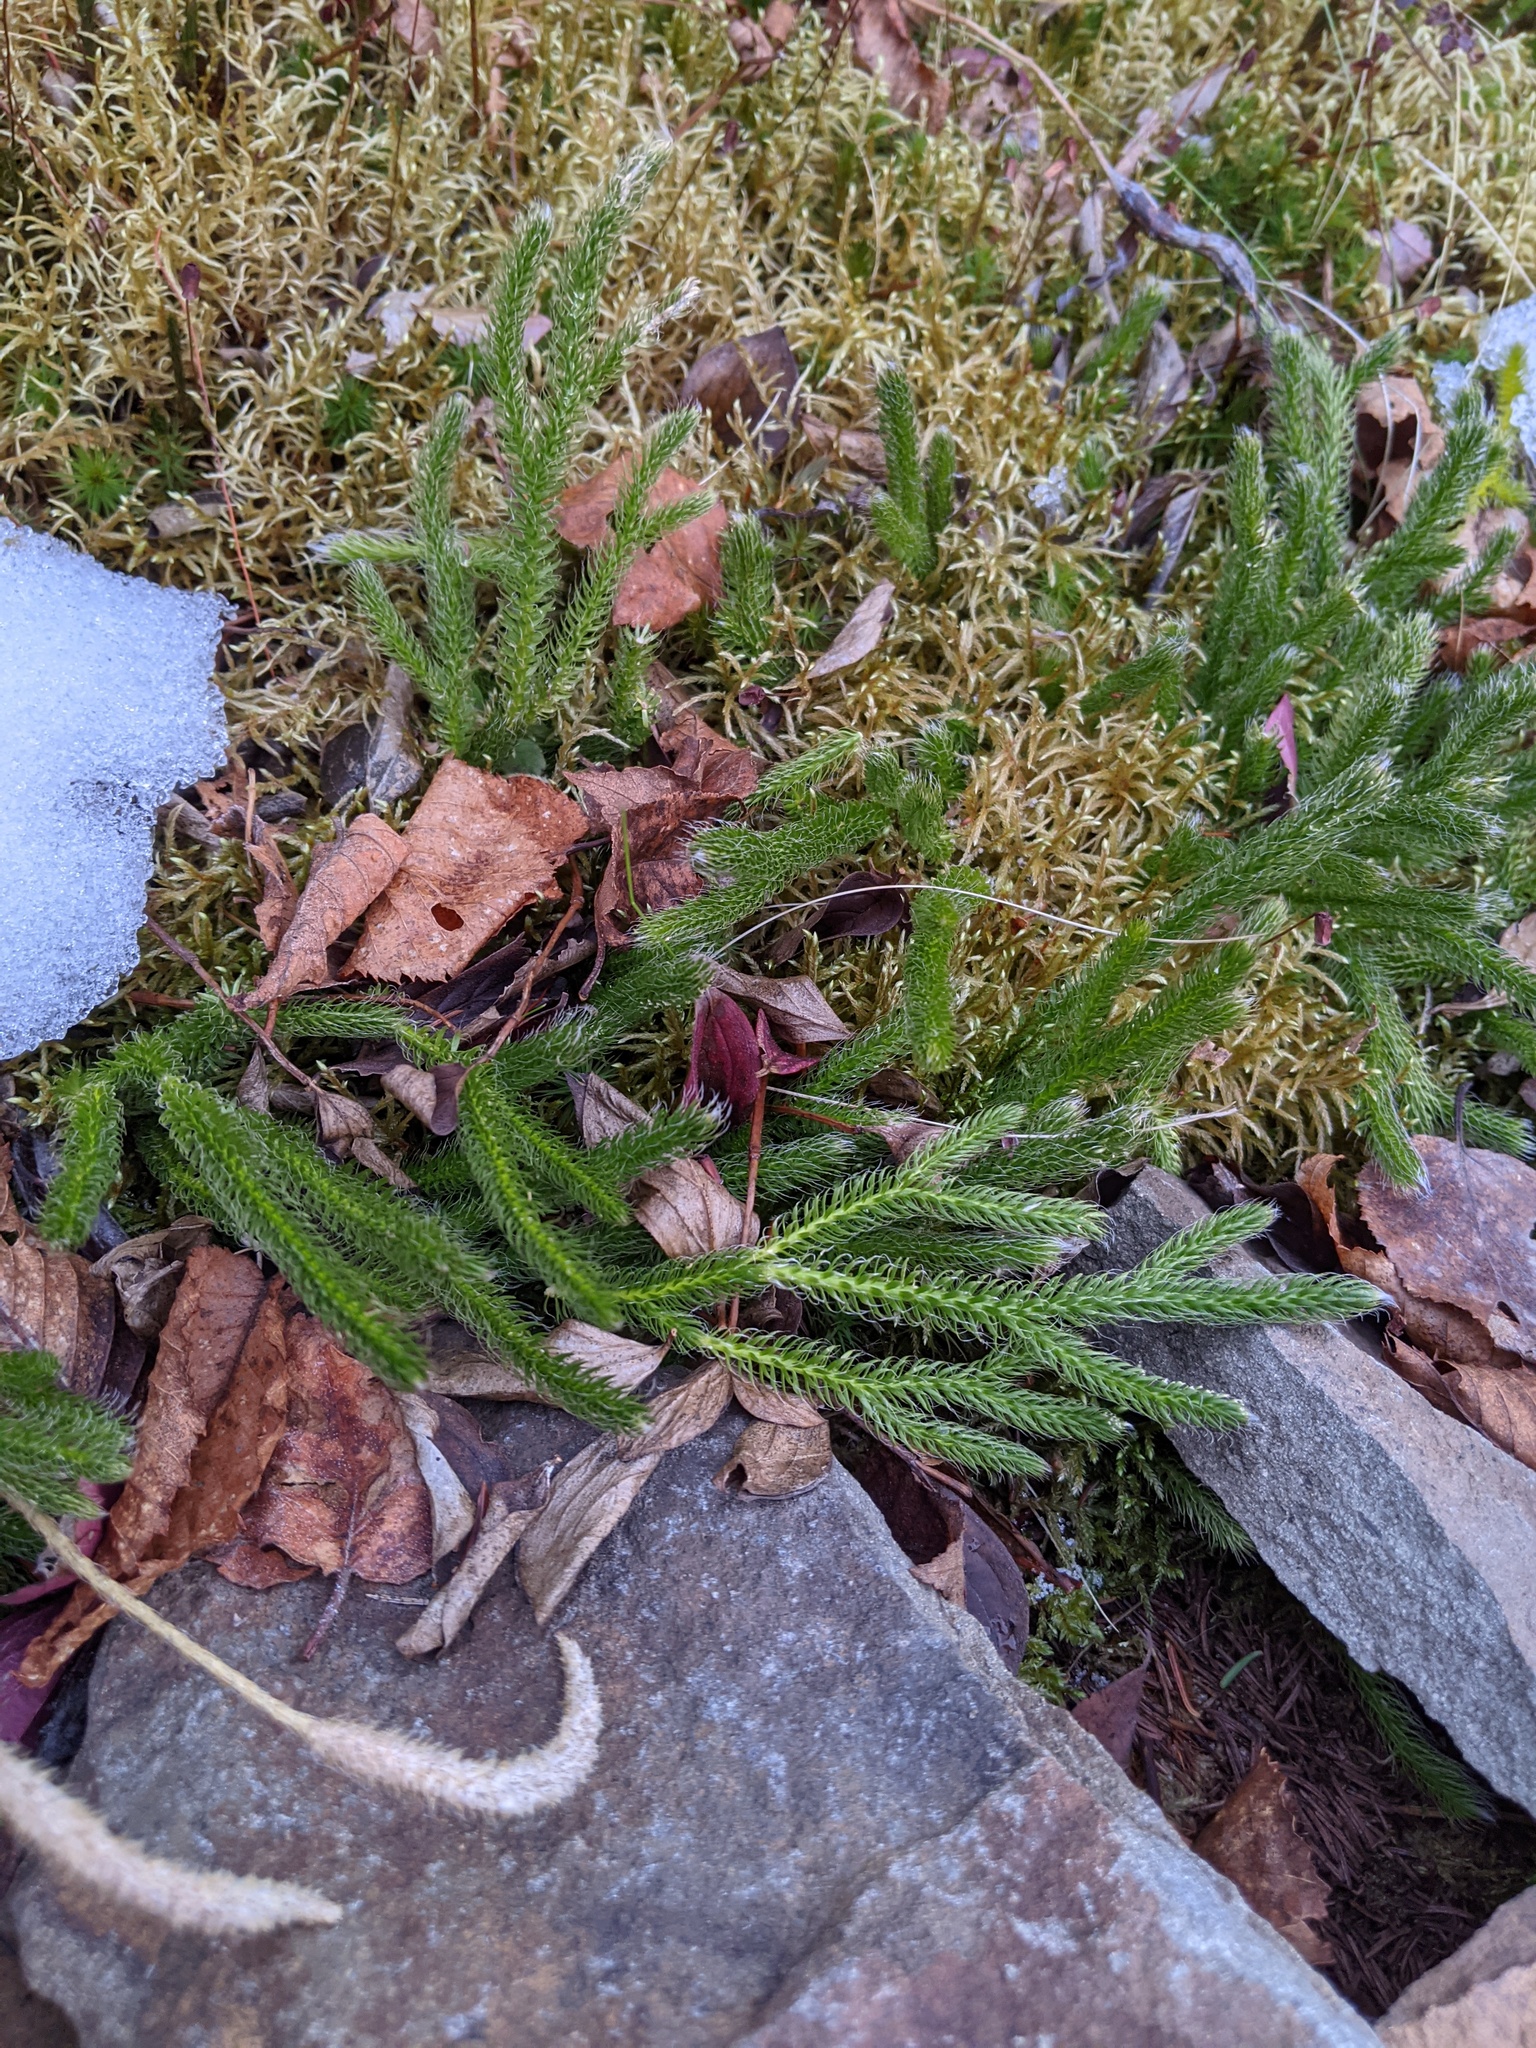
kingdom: Plantae
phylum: Tracheophyta
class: Lycopodiopsida
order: Lycopodiales
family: Lycopodiaceae
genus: Lycopodium
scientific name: Lycopodium lagopus
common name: One-cone clubmoss
